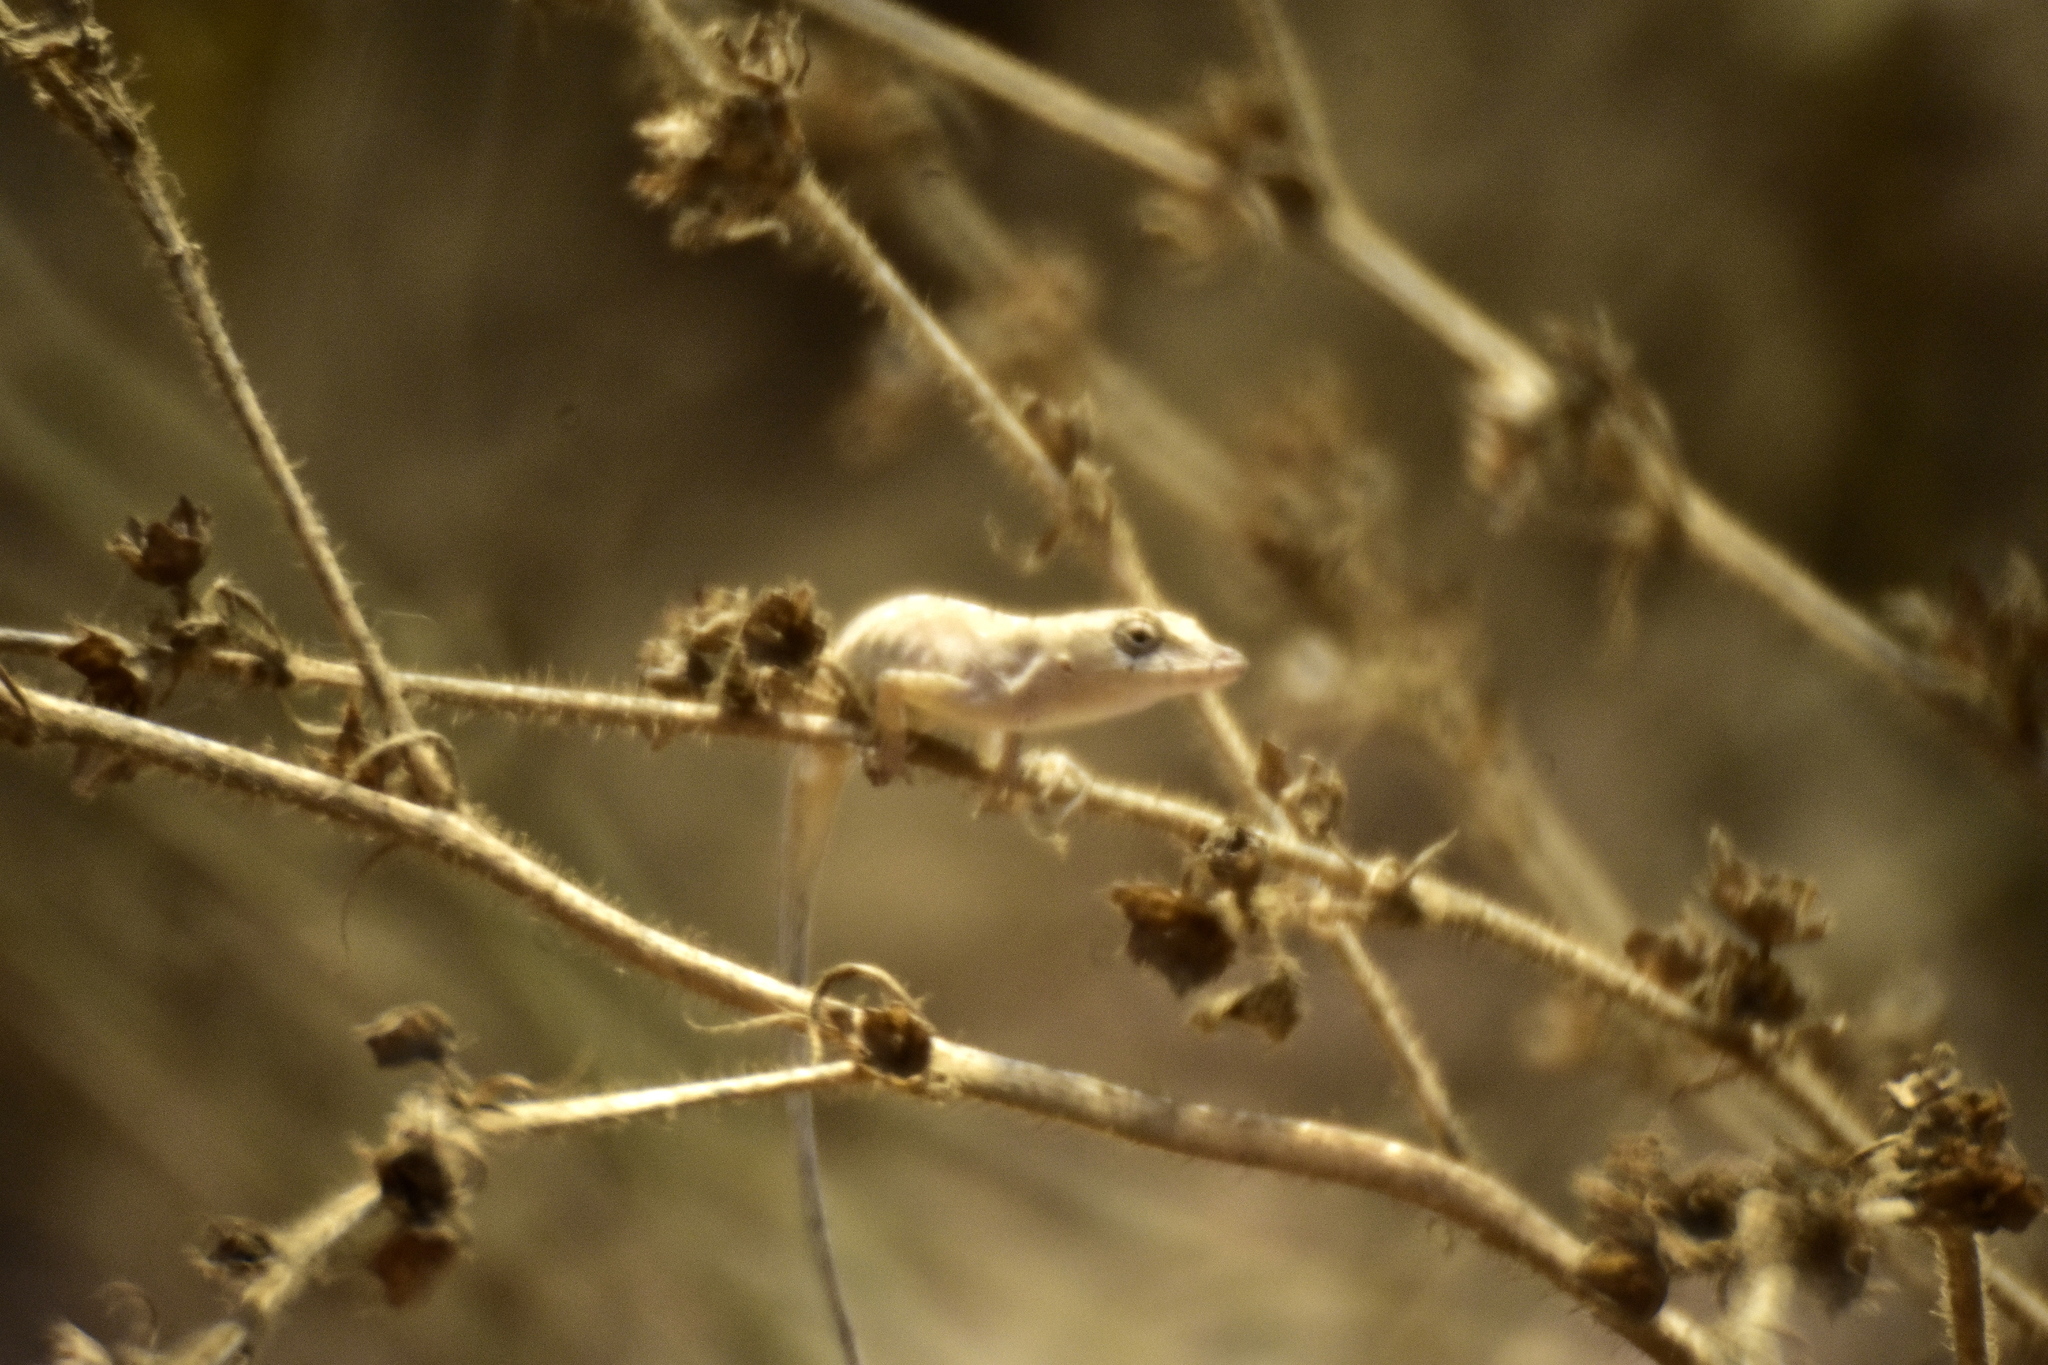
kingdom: Animalia
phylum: Chordata
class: Squamata
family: Dactyloidae
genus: Anolis
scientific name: Anolis nebulosus
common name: Clouded anole
